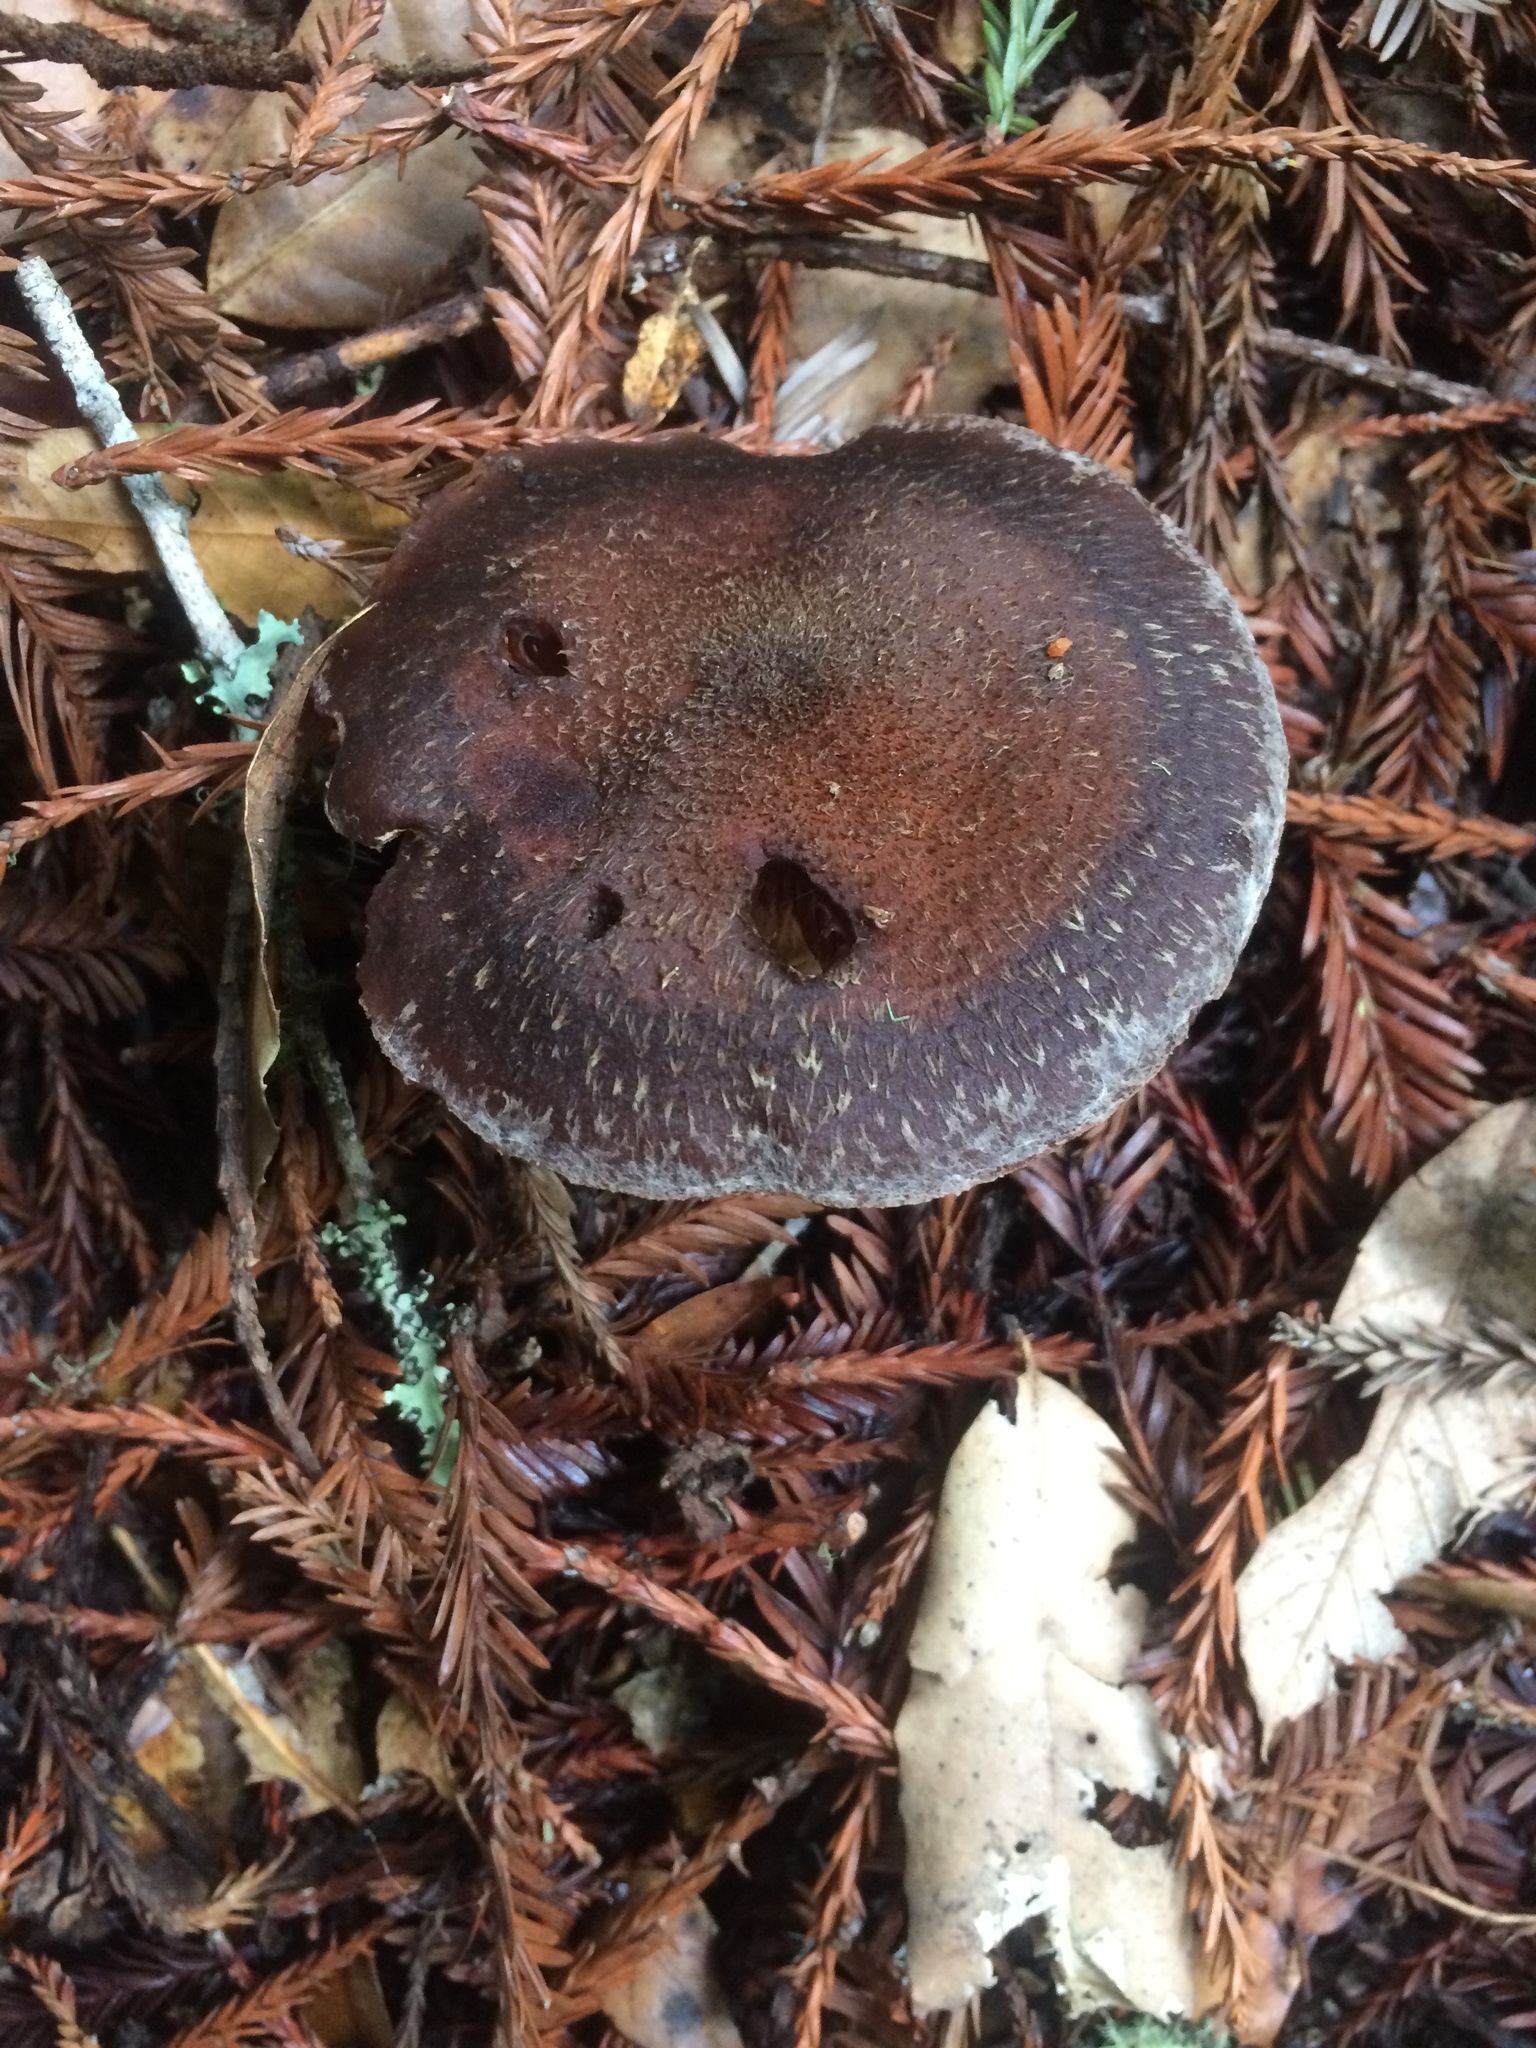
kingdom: Fungi
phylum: Basidiomycota
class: Agaricomycetes
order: Agaricales
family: Physalacriaceae
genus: Armillaria
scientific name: Armillaria gallica
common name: Bulbous honey fungus
